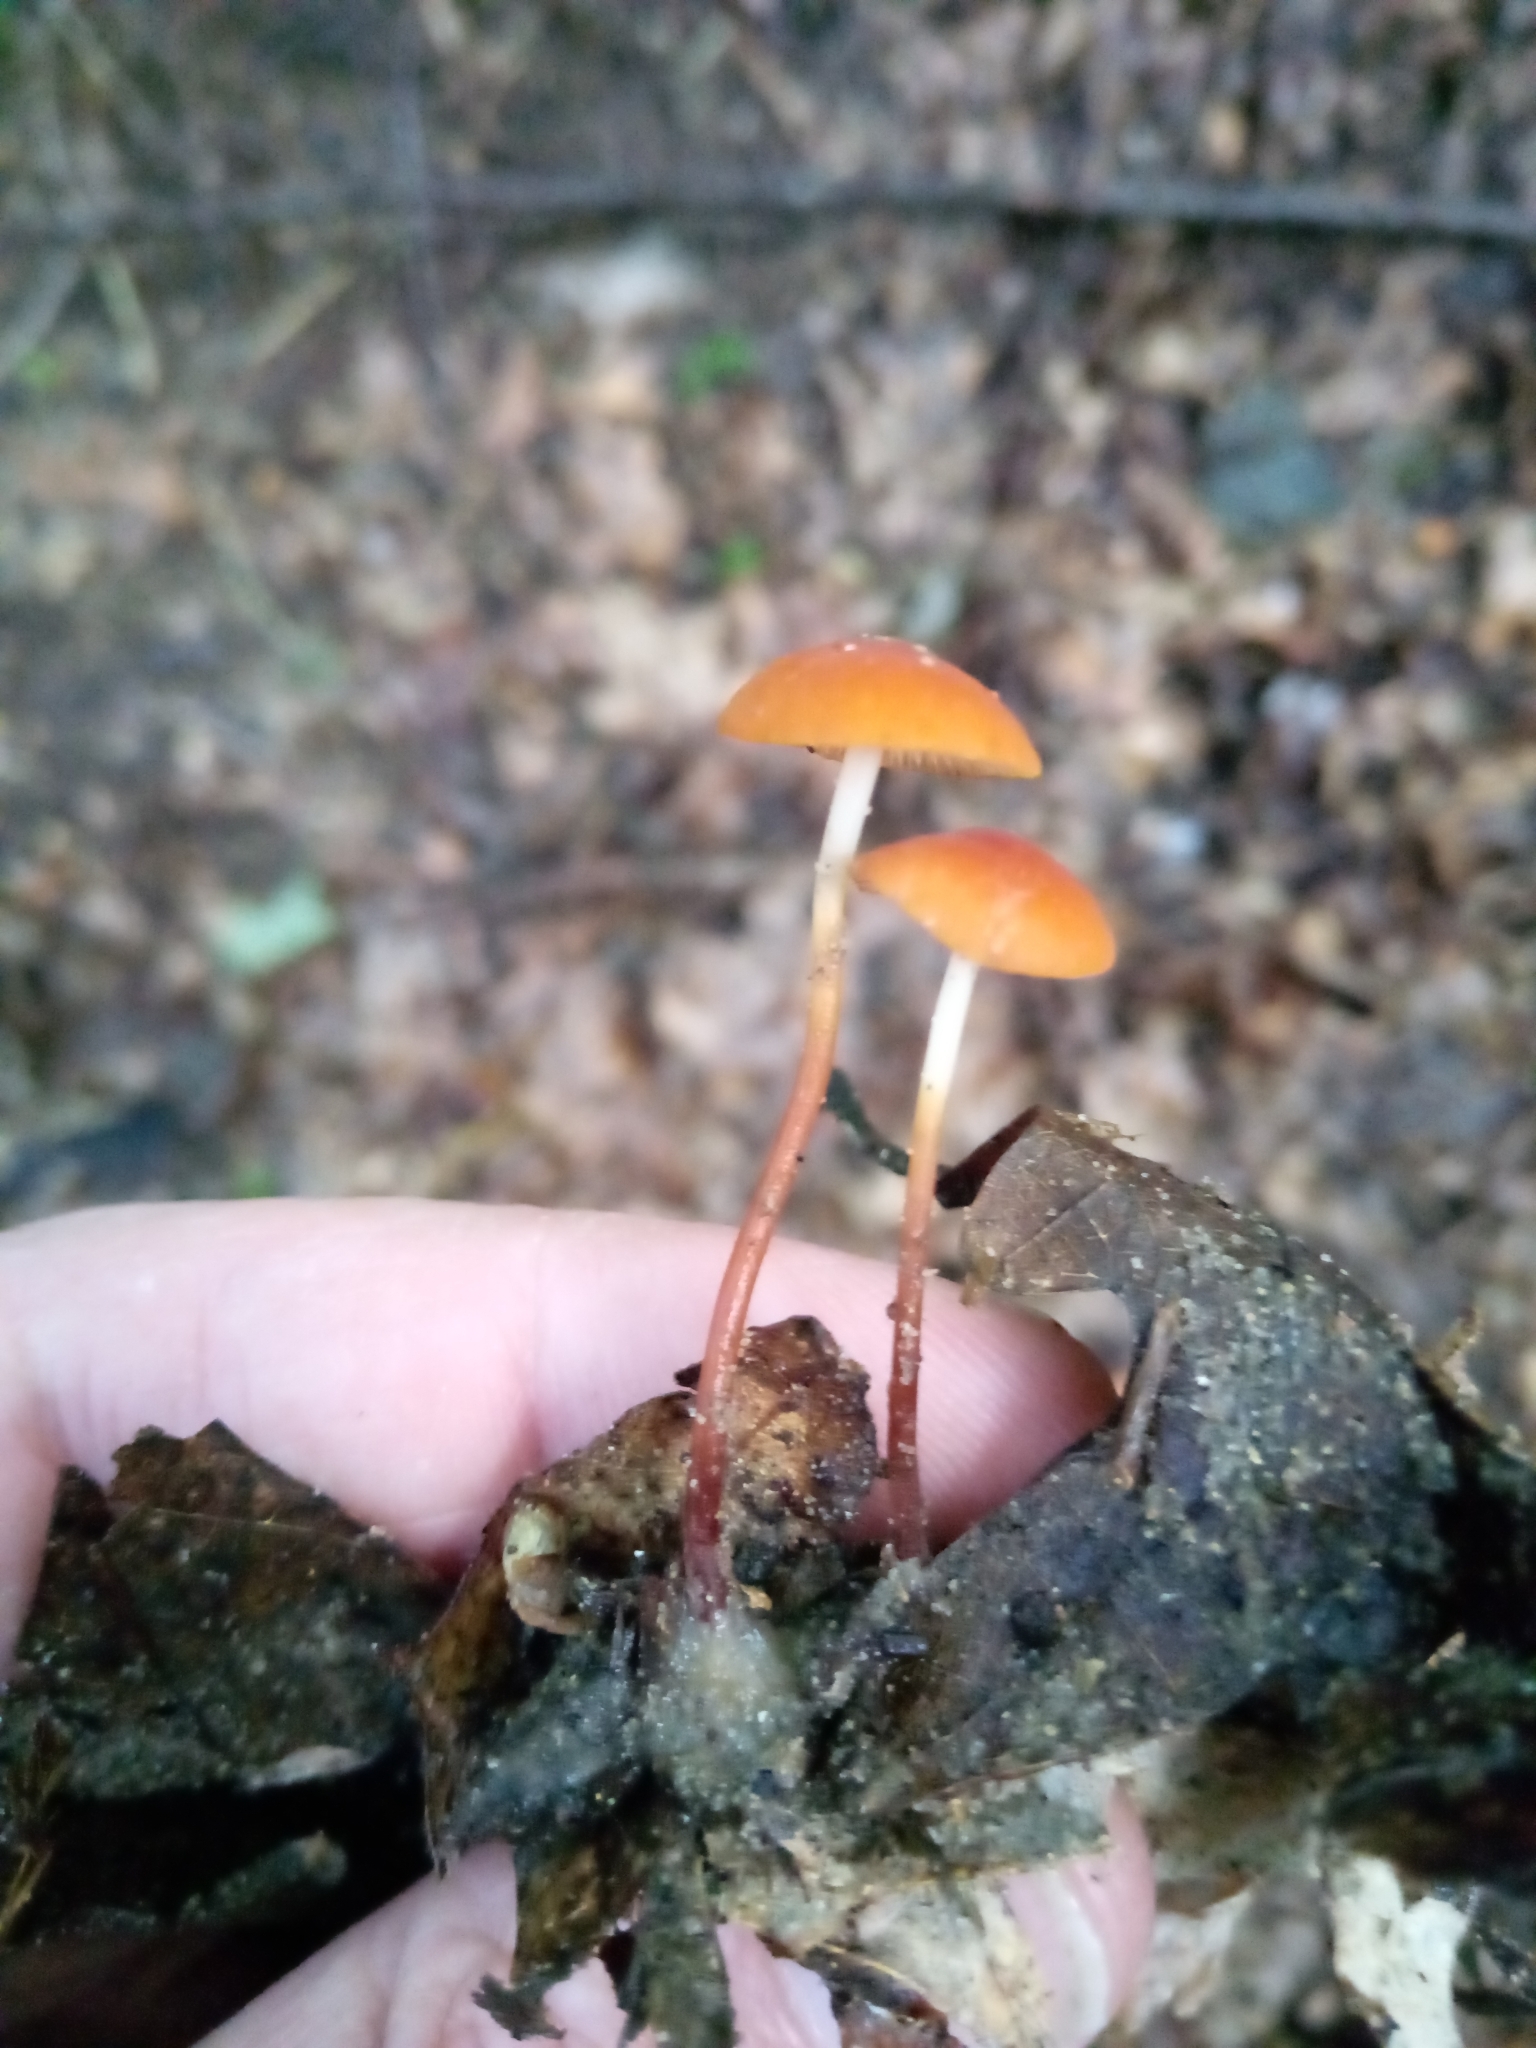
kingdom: Fungi
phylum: Basidiomycota
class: Agaricomycetes
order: Agaricales
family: Marasmiaceae
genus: Marasmius
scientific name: Marasmius sullivantii
